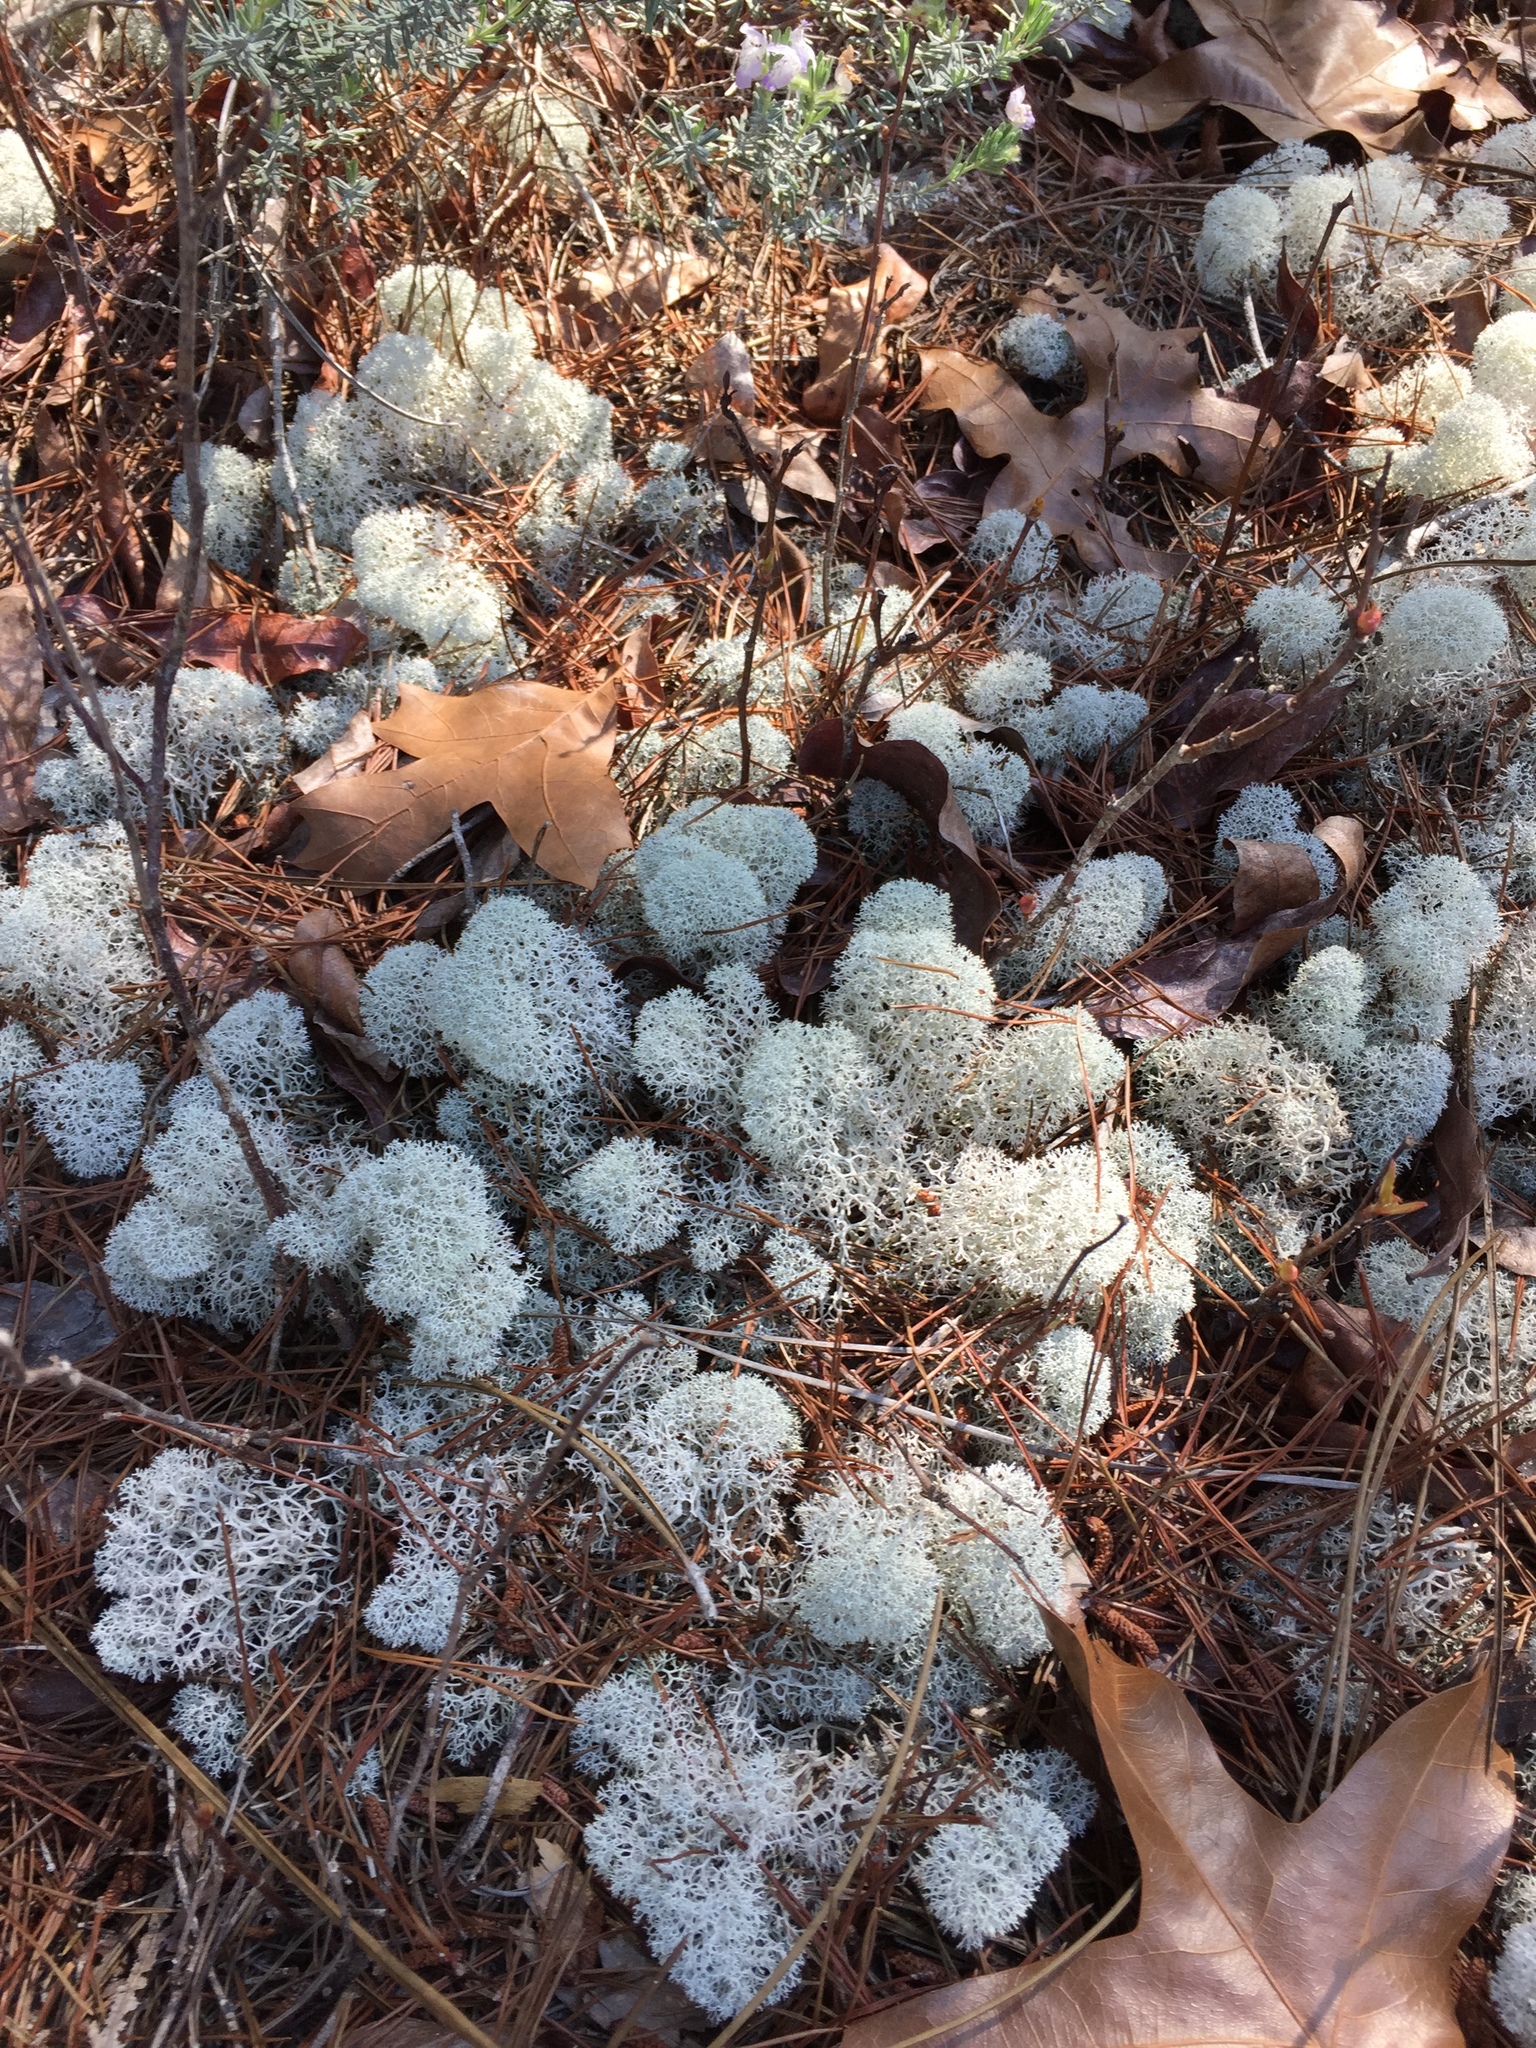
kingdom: Fungi
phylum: Ascomycota
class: Lecanoromycetes
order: Lecanorales
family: Cladoniaceae
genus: Cladonia
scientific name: Cladonia evansii
